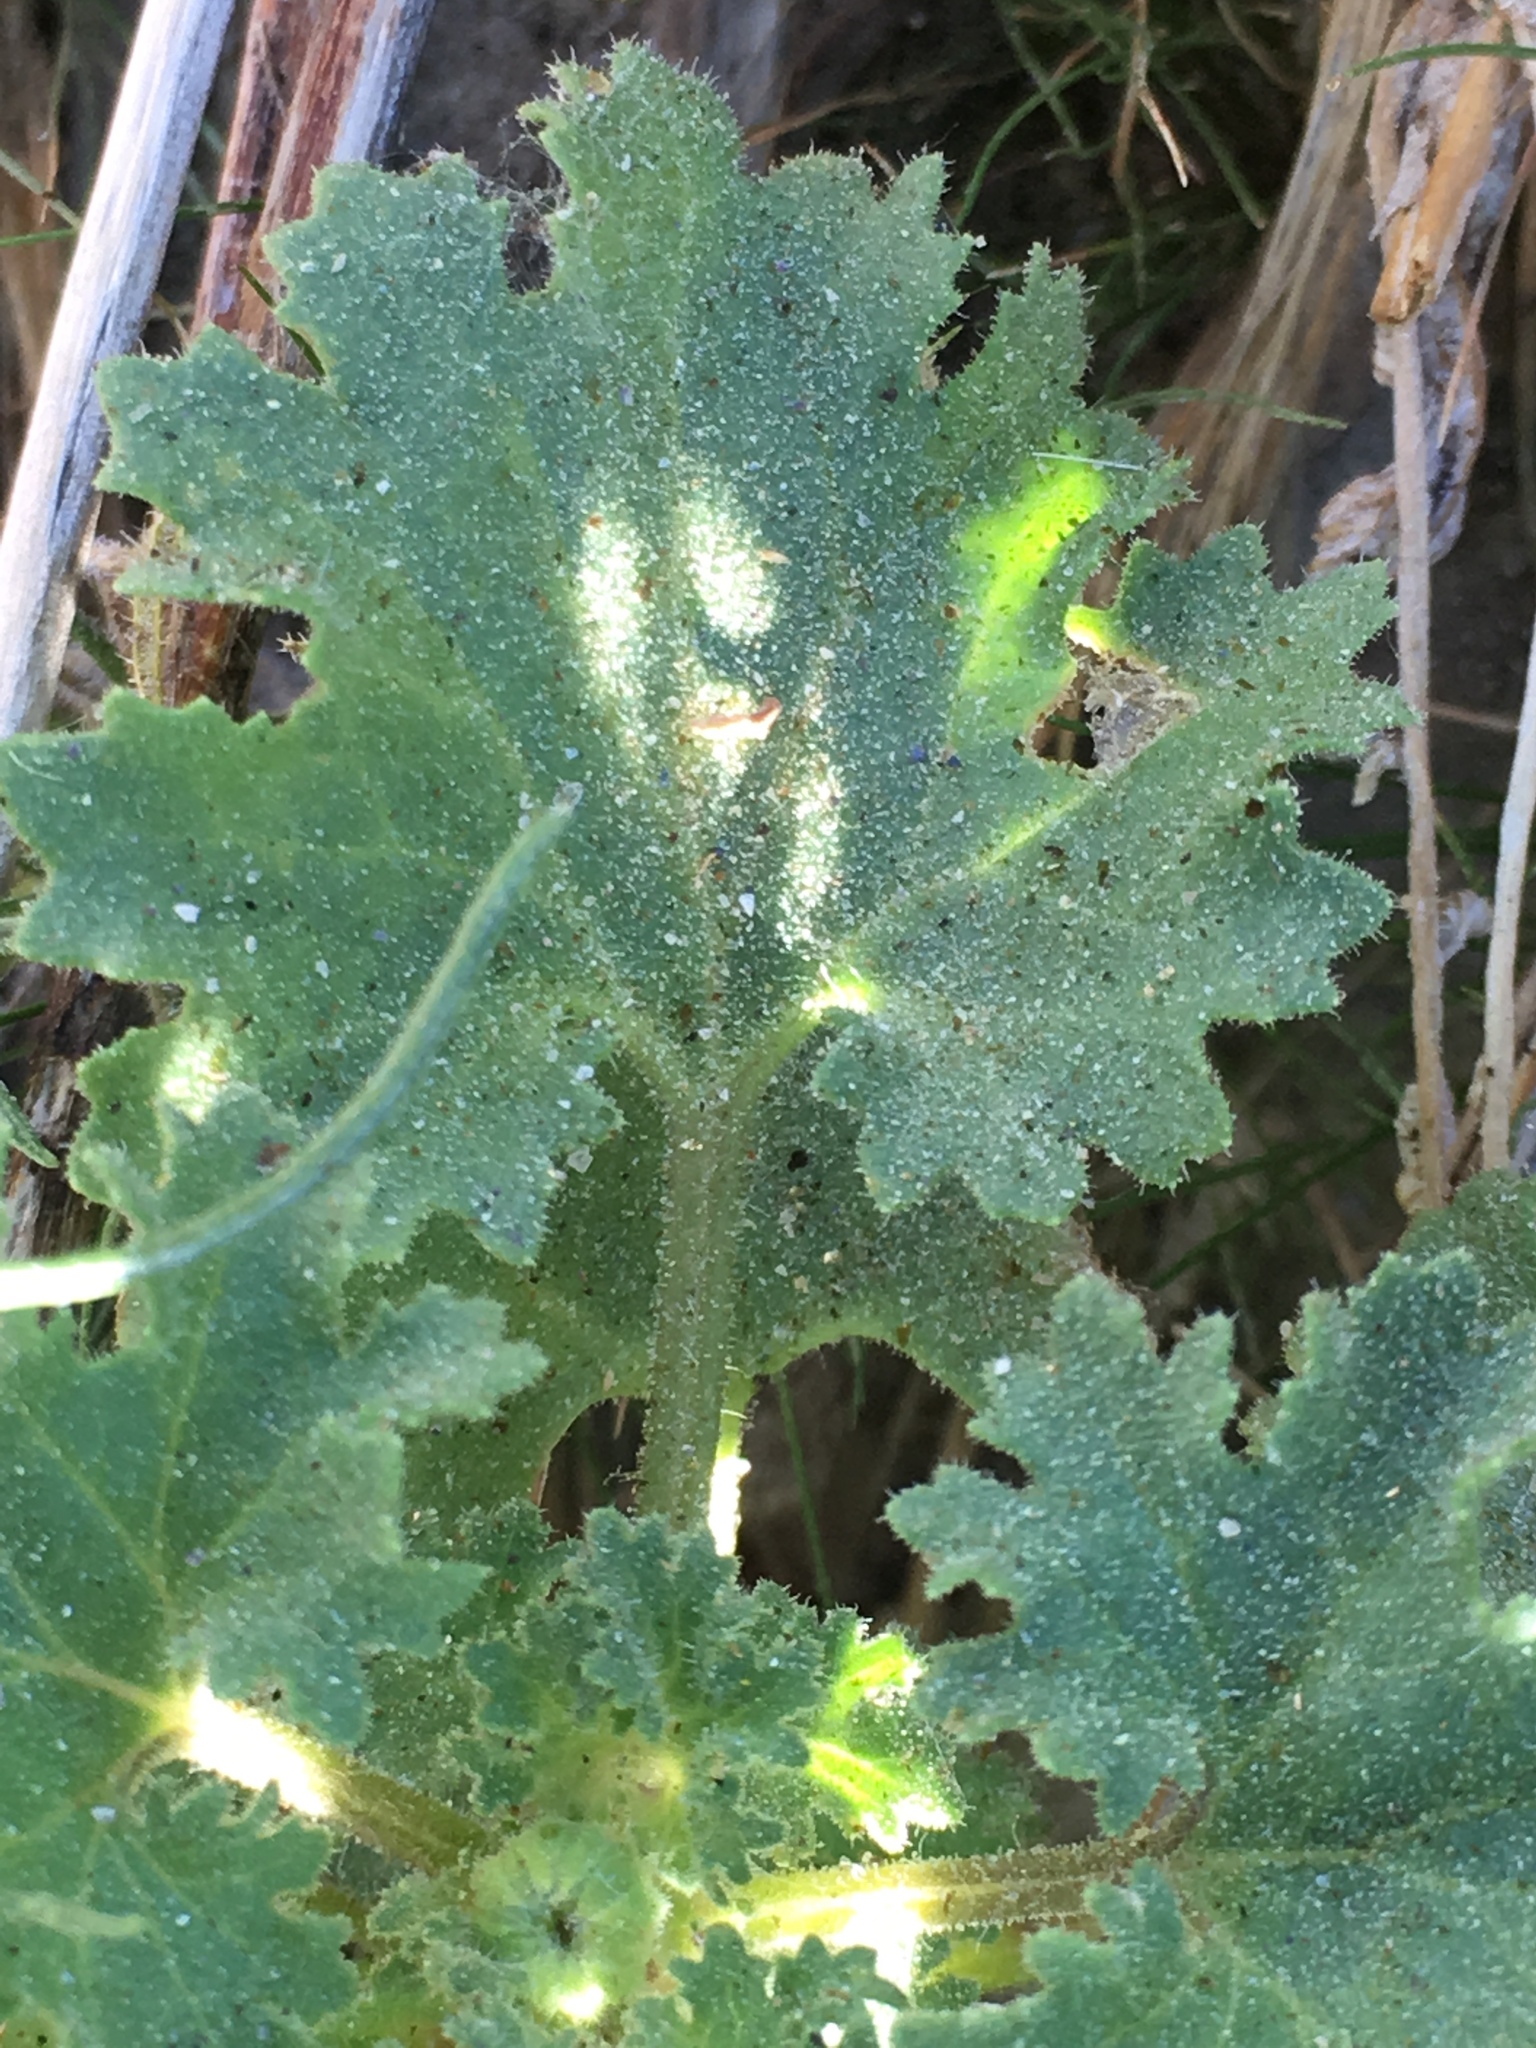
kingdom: Plantae
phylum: Tracheophyta
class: Magnoliopsida
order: Asterales
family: Asteraceae
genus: Laphamia
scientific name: Laphamia emoryi
